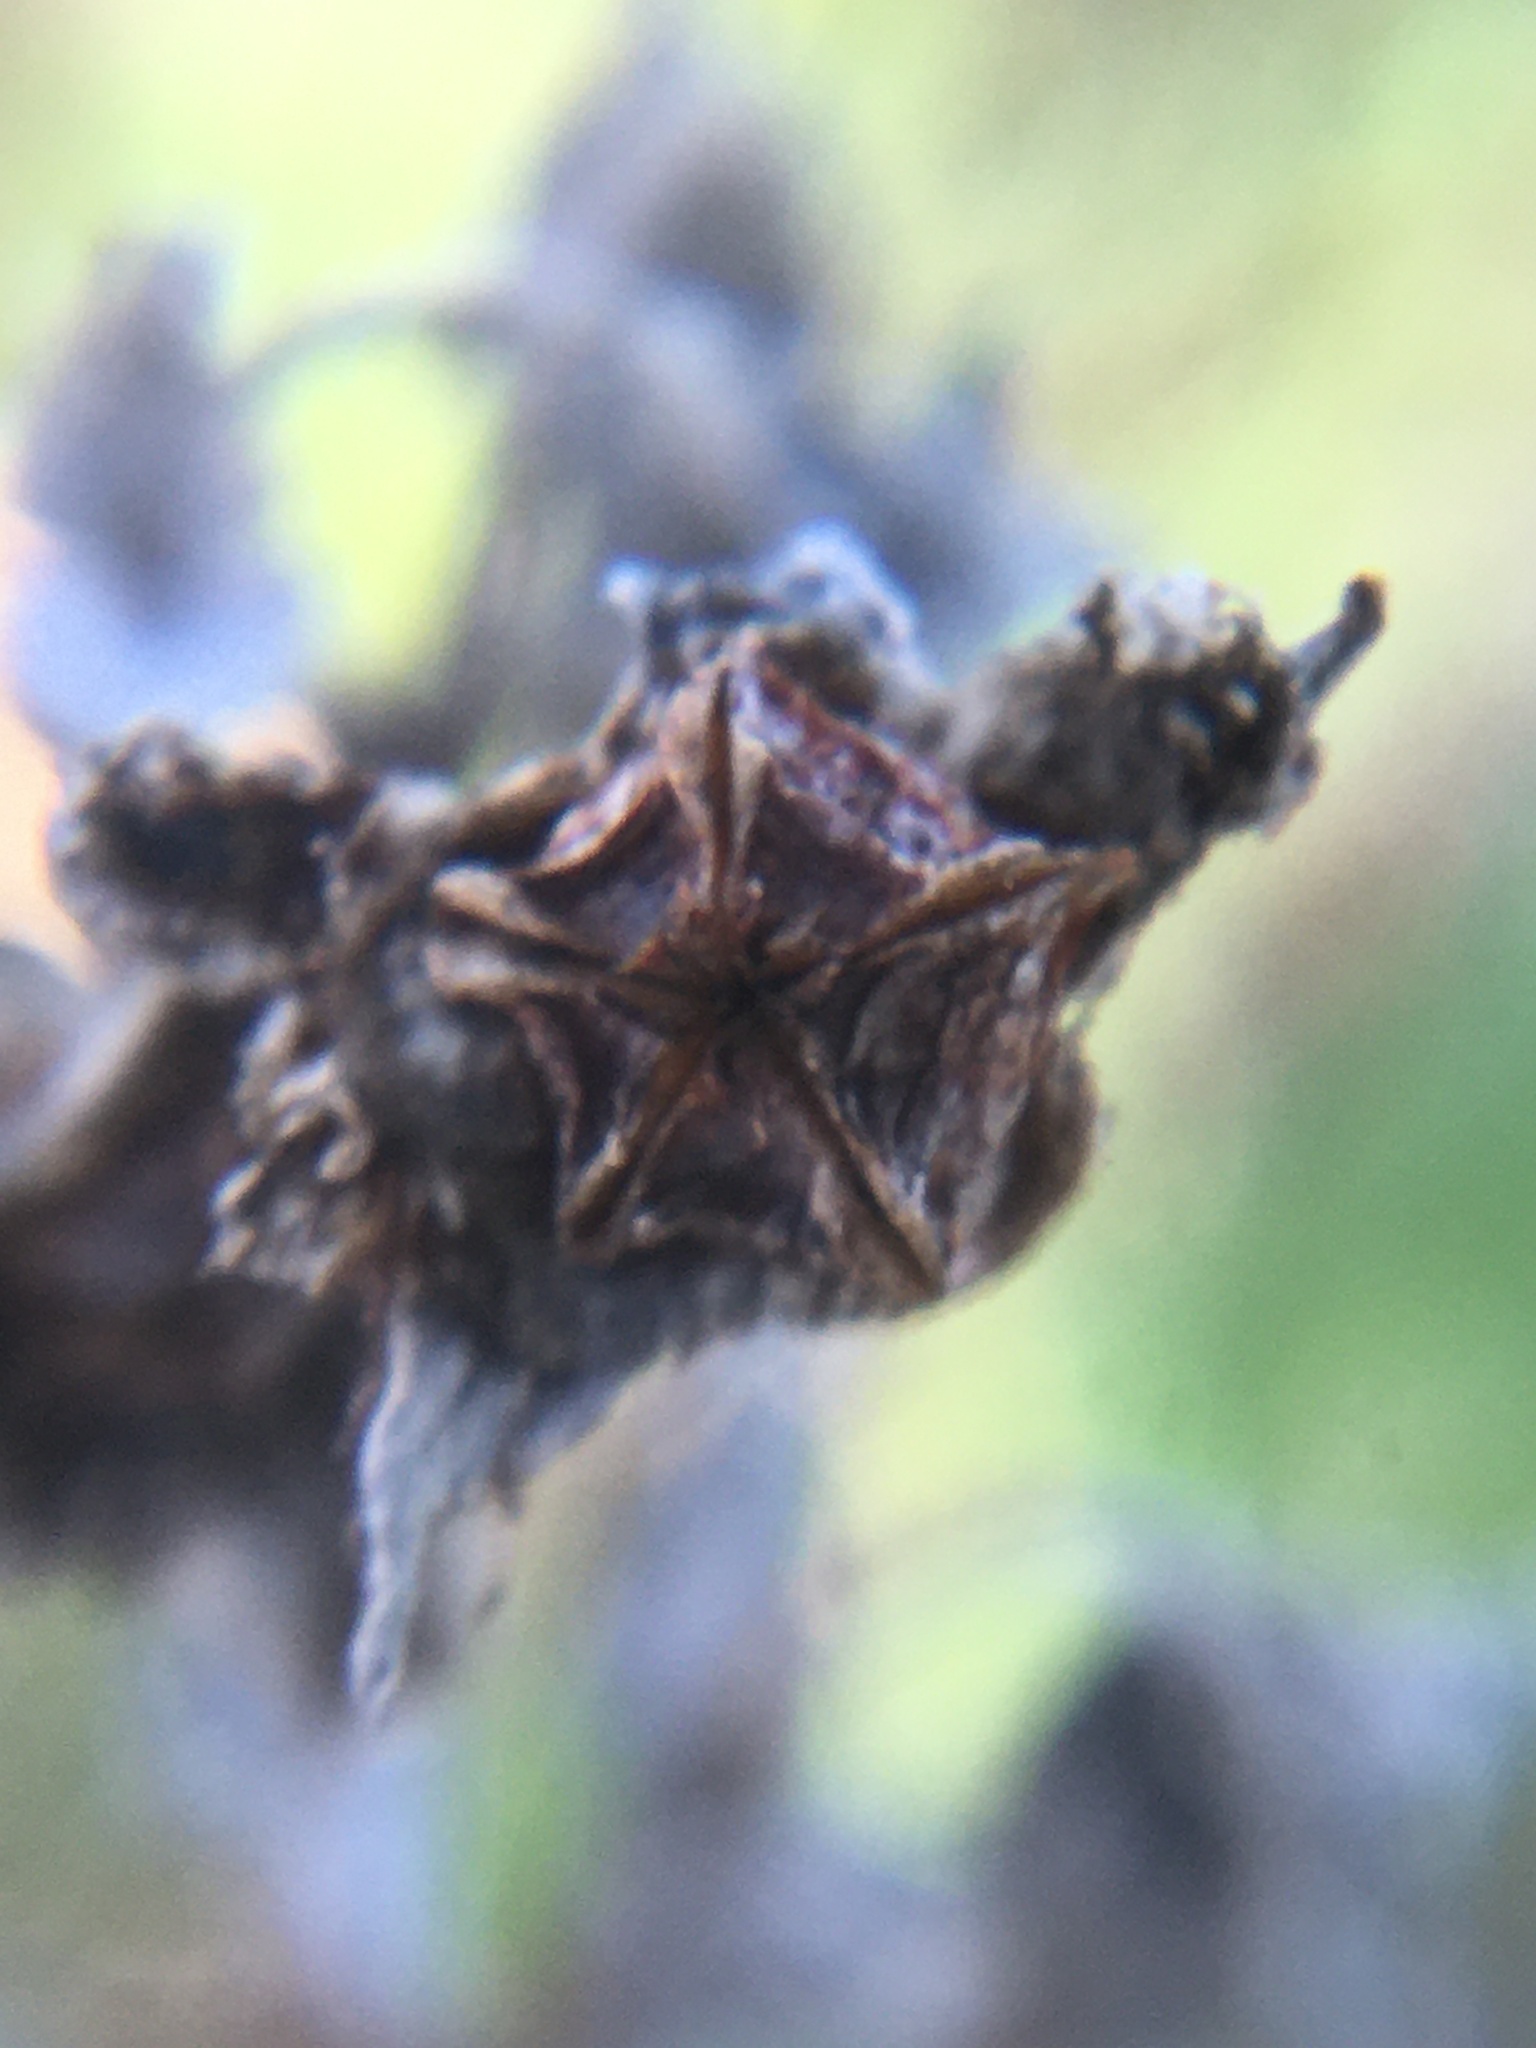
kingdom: Plantae
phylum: Tracheophyta
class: Magnoliopsida
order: Caryophyllales
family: Aizoaceae
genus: Ruschia
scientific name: Ruschia macowanii
